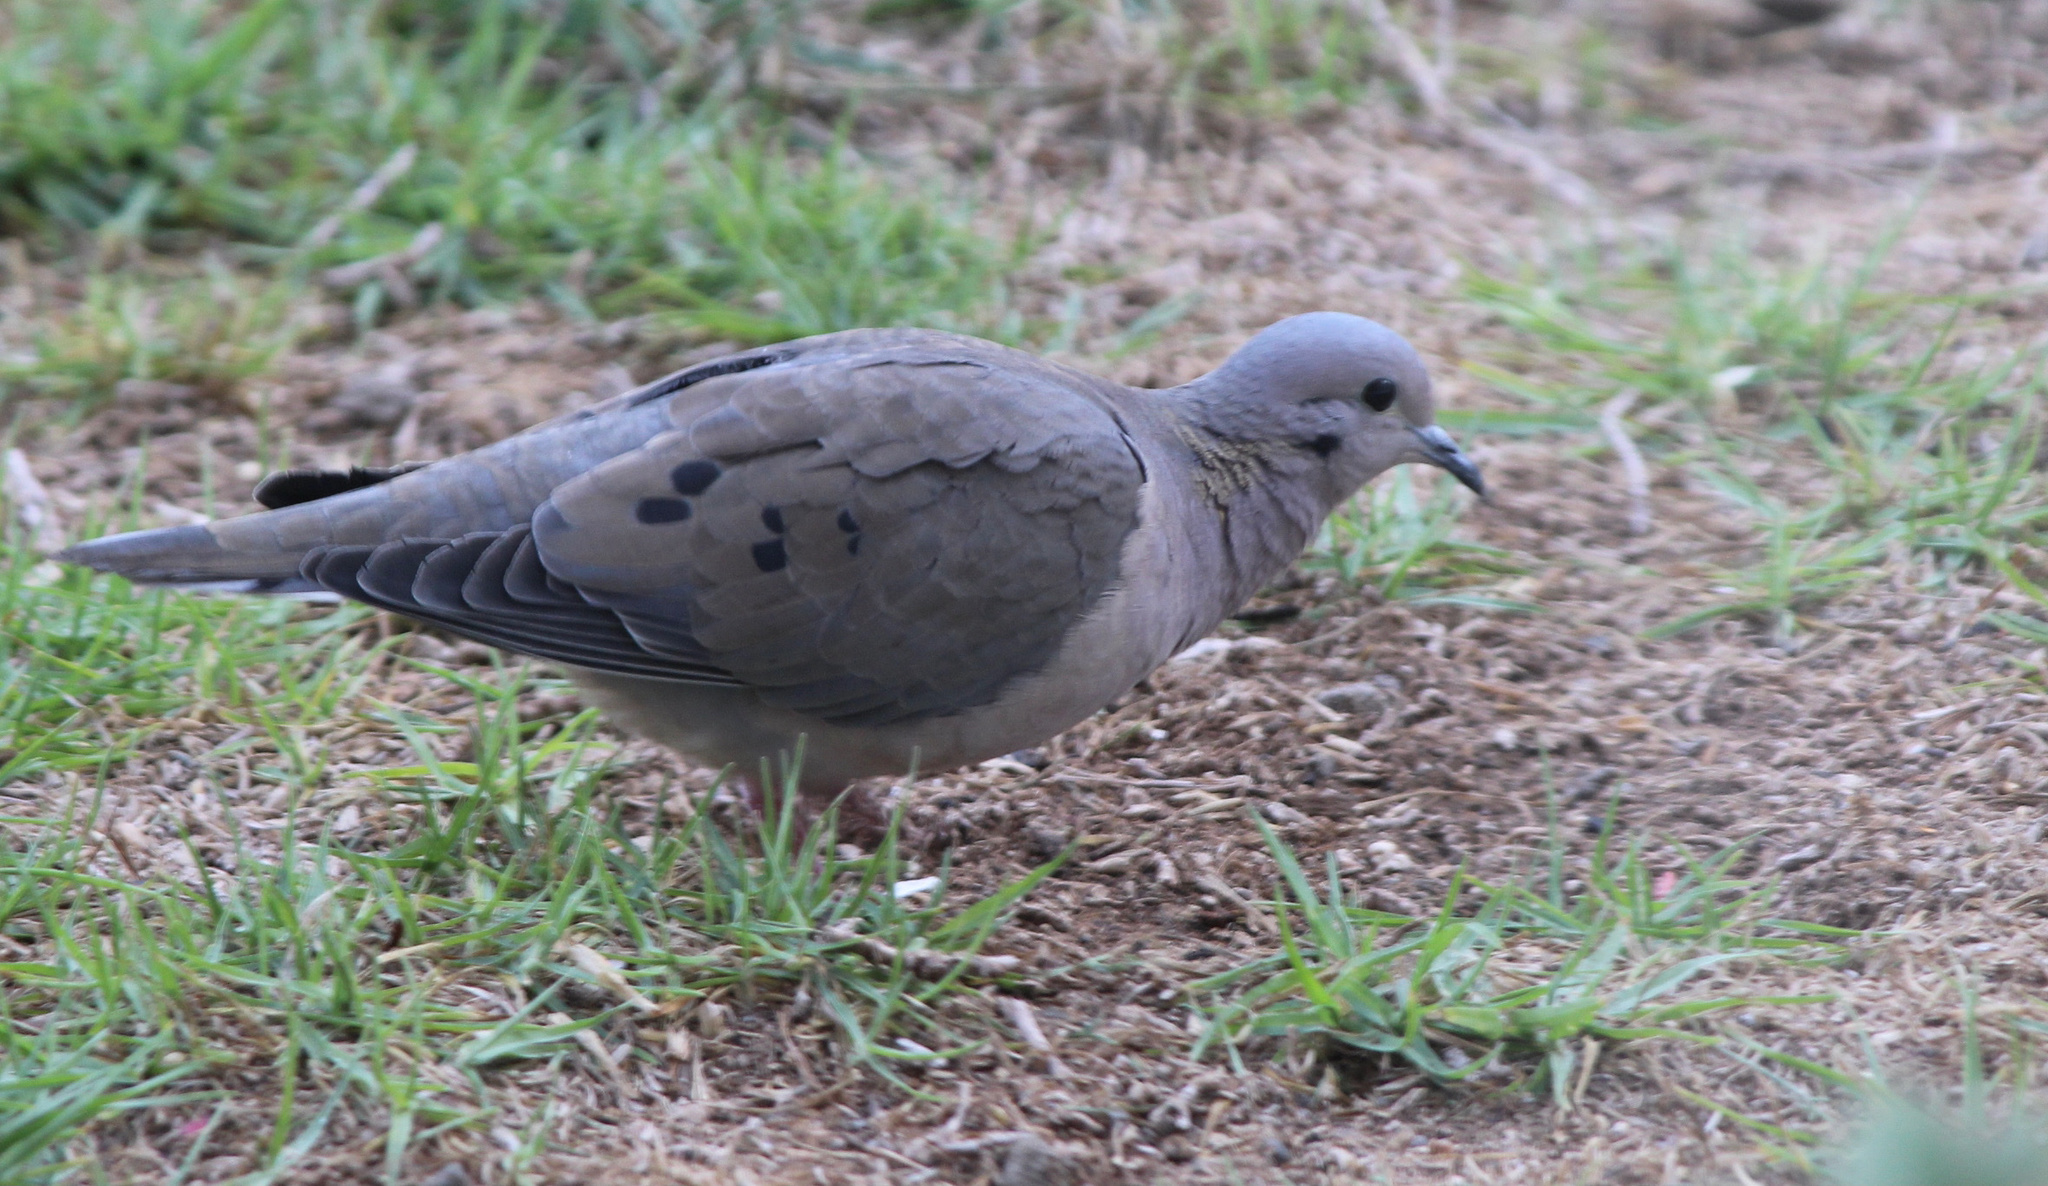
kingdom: Animalia
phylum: Chordata
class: Aves
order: Columbiformes
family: Columbidae
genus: Zenaida
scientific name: Zenaida auriculata
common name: Eared dove
